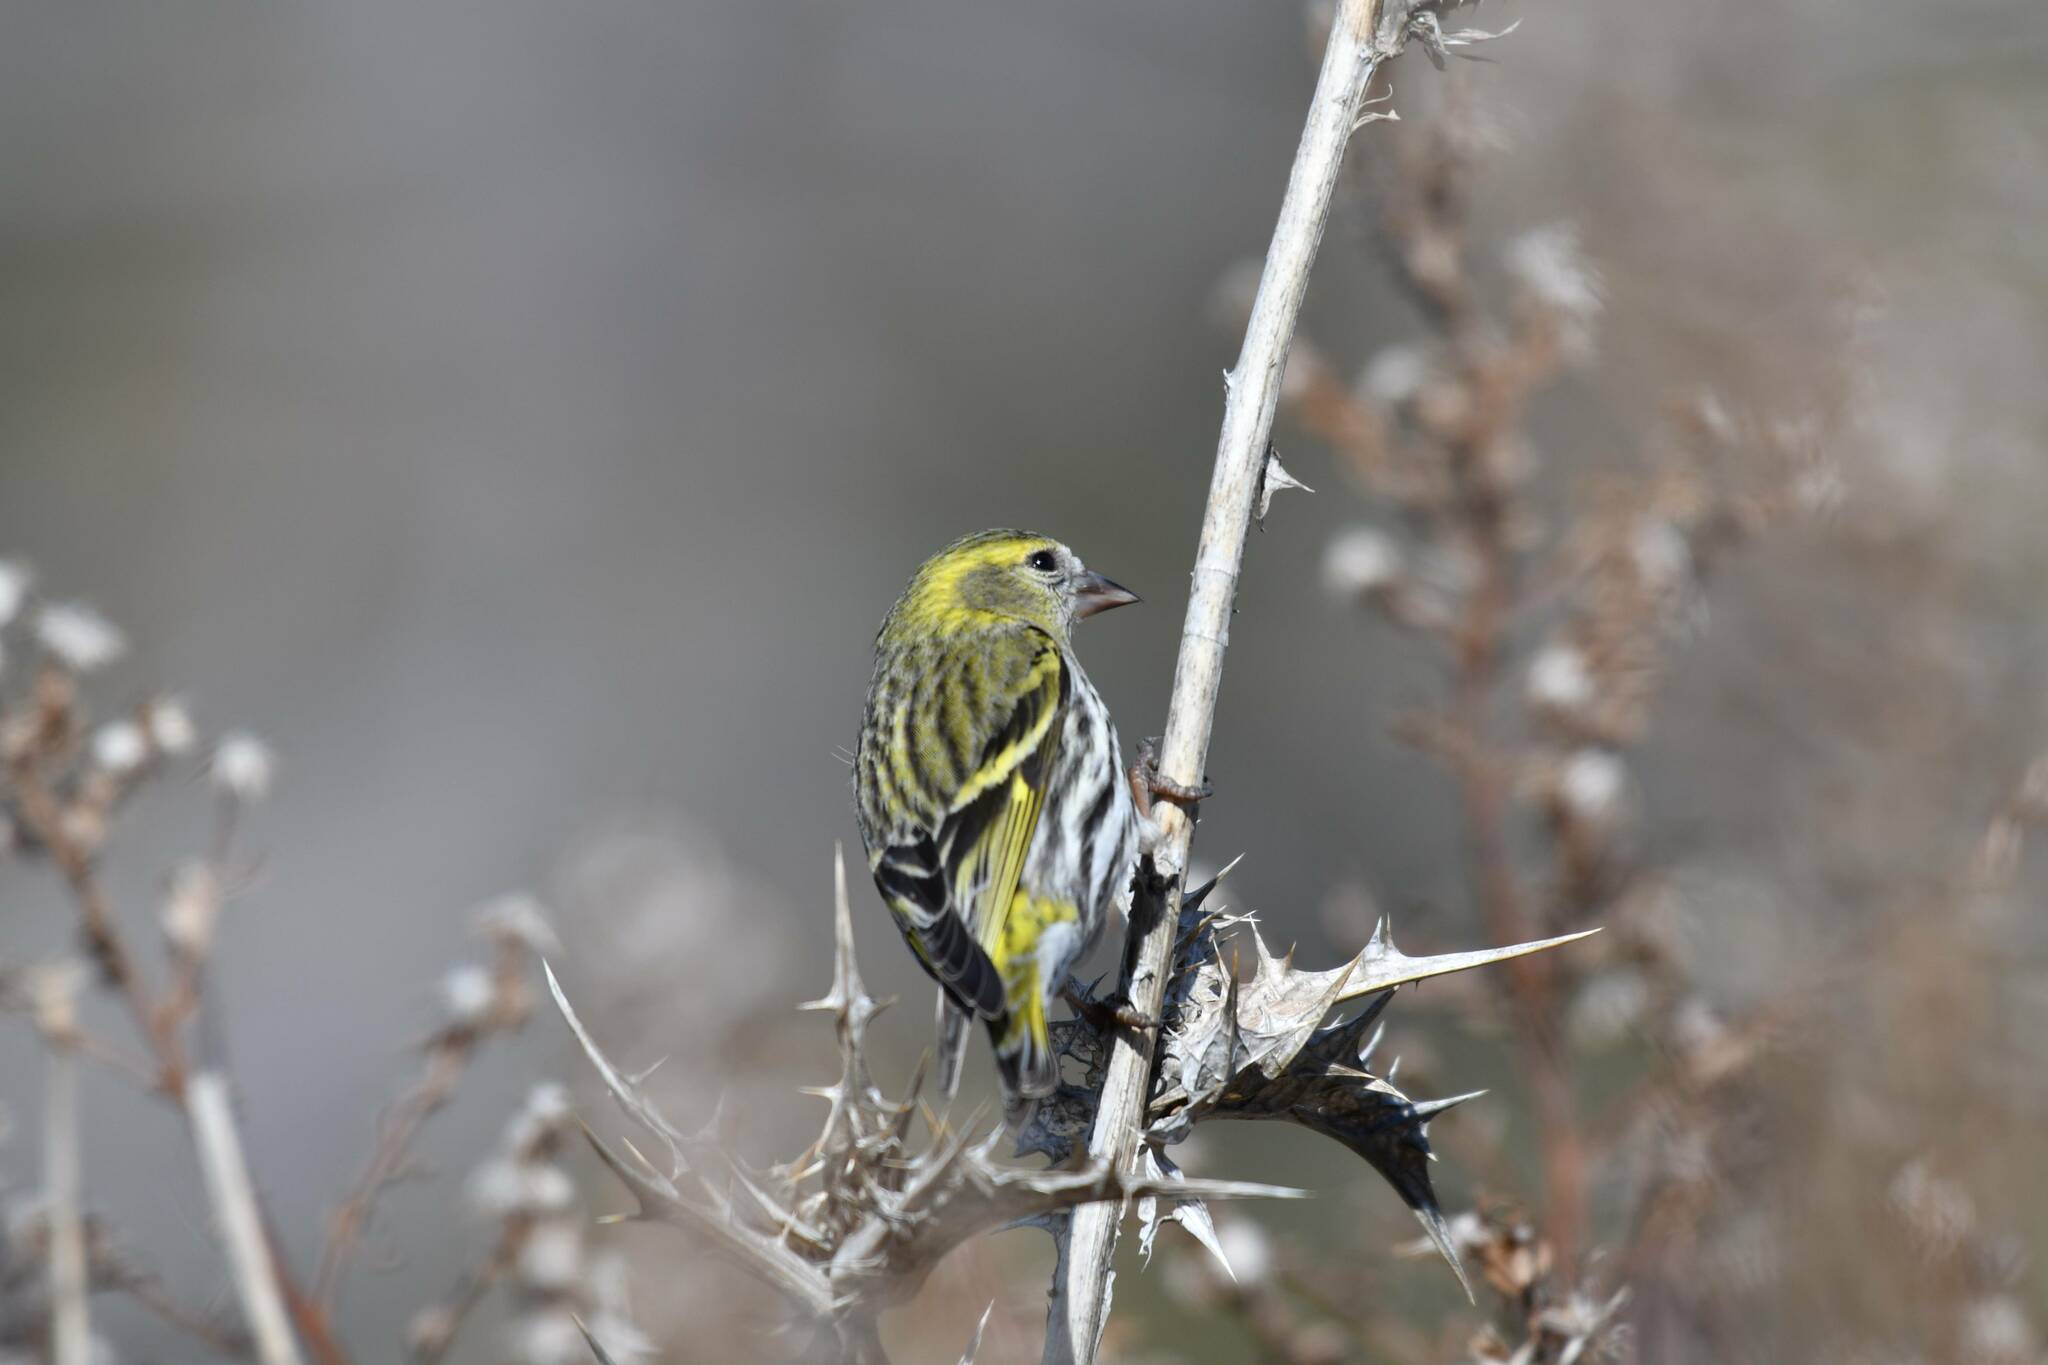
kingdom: Animalia
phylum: Chordata
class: Aves
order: Passeriformes
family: Fringillidae
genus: Spinus
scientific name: Spinus spinus
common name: Eurasian siskin
